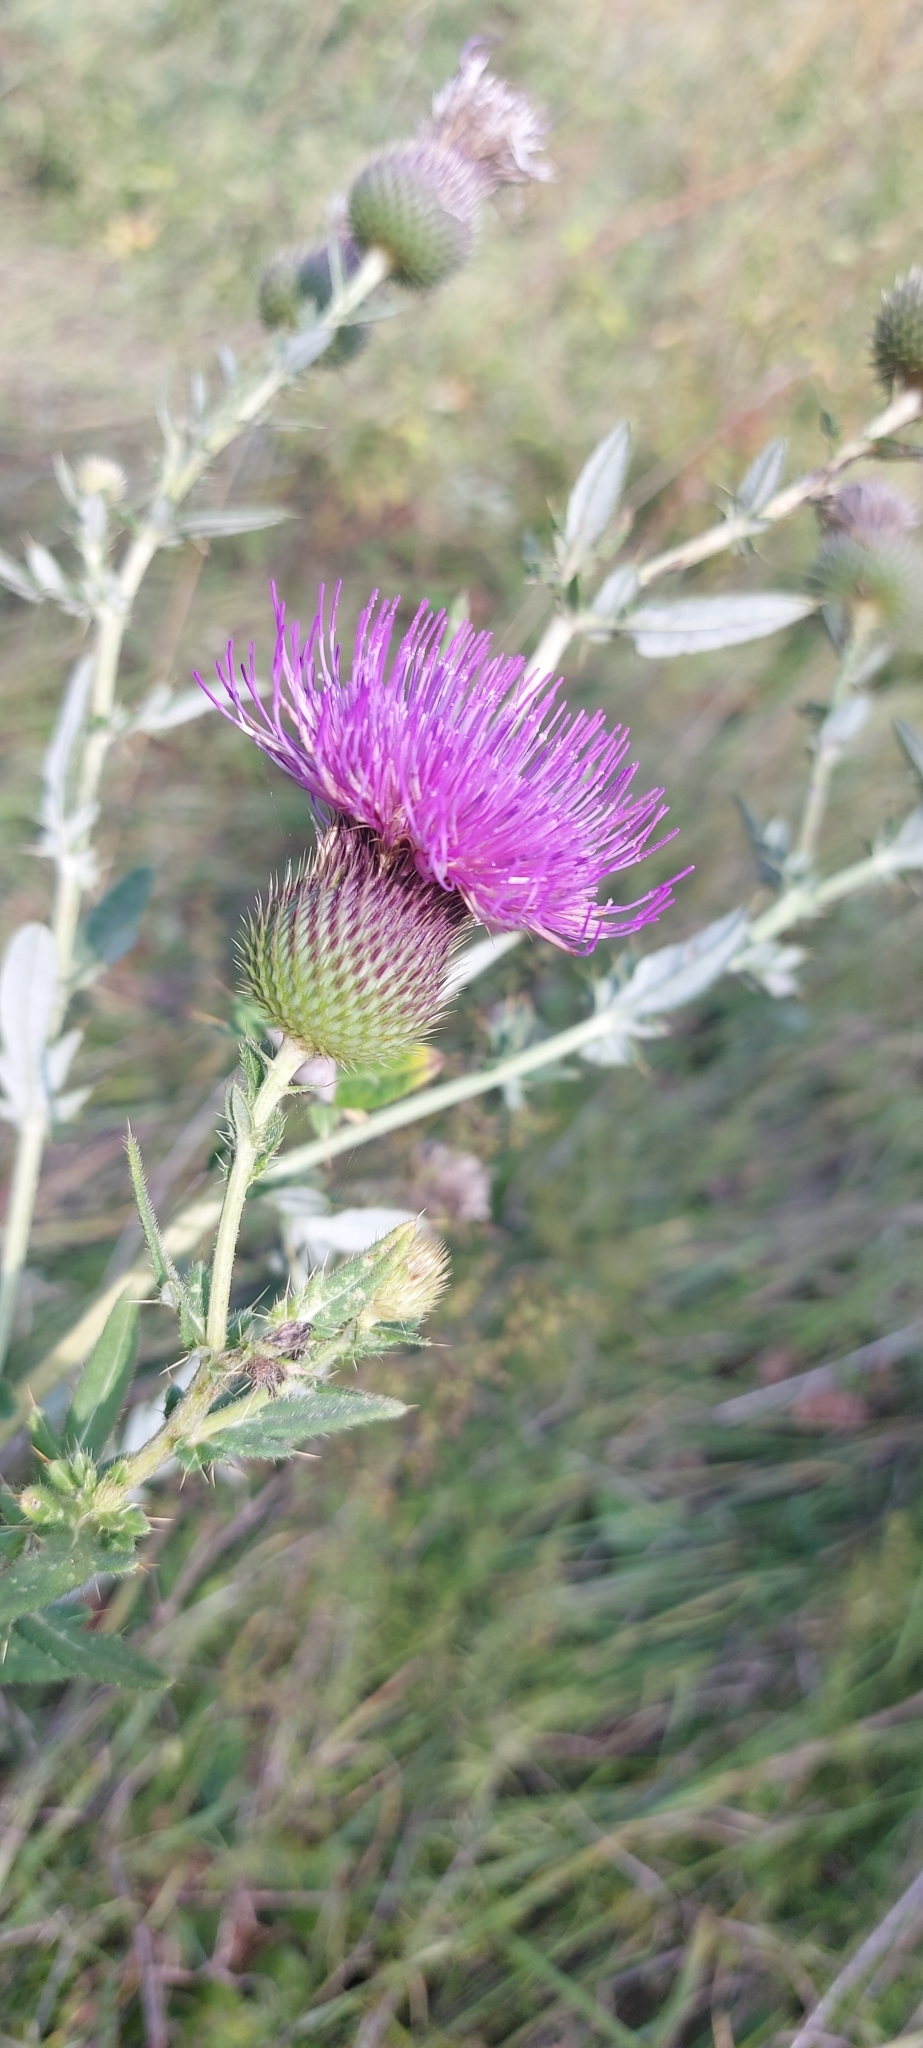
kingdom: Plantae
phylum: Tracheophyta
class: Magnoliopsida
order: Asterales
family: Asteraceae
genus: Cirsium
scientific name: Cirsium serrulatum
